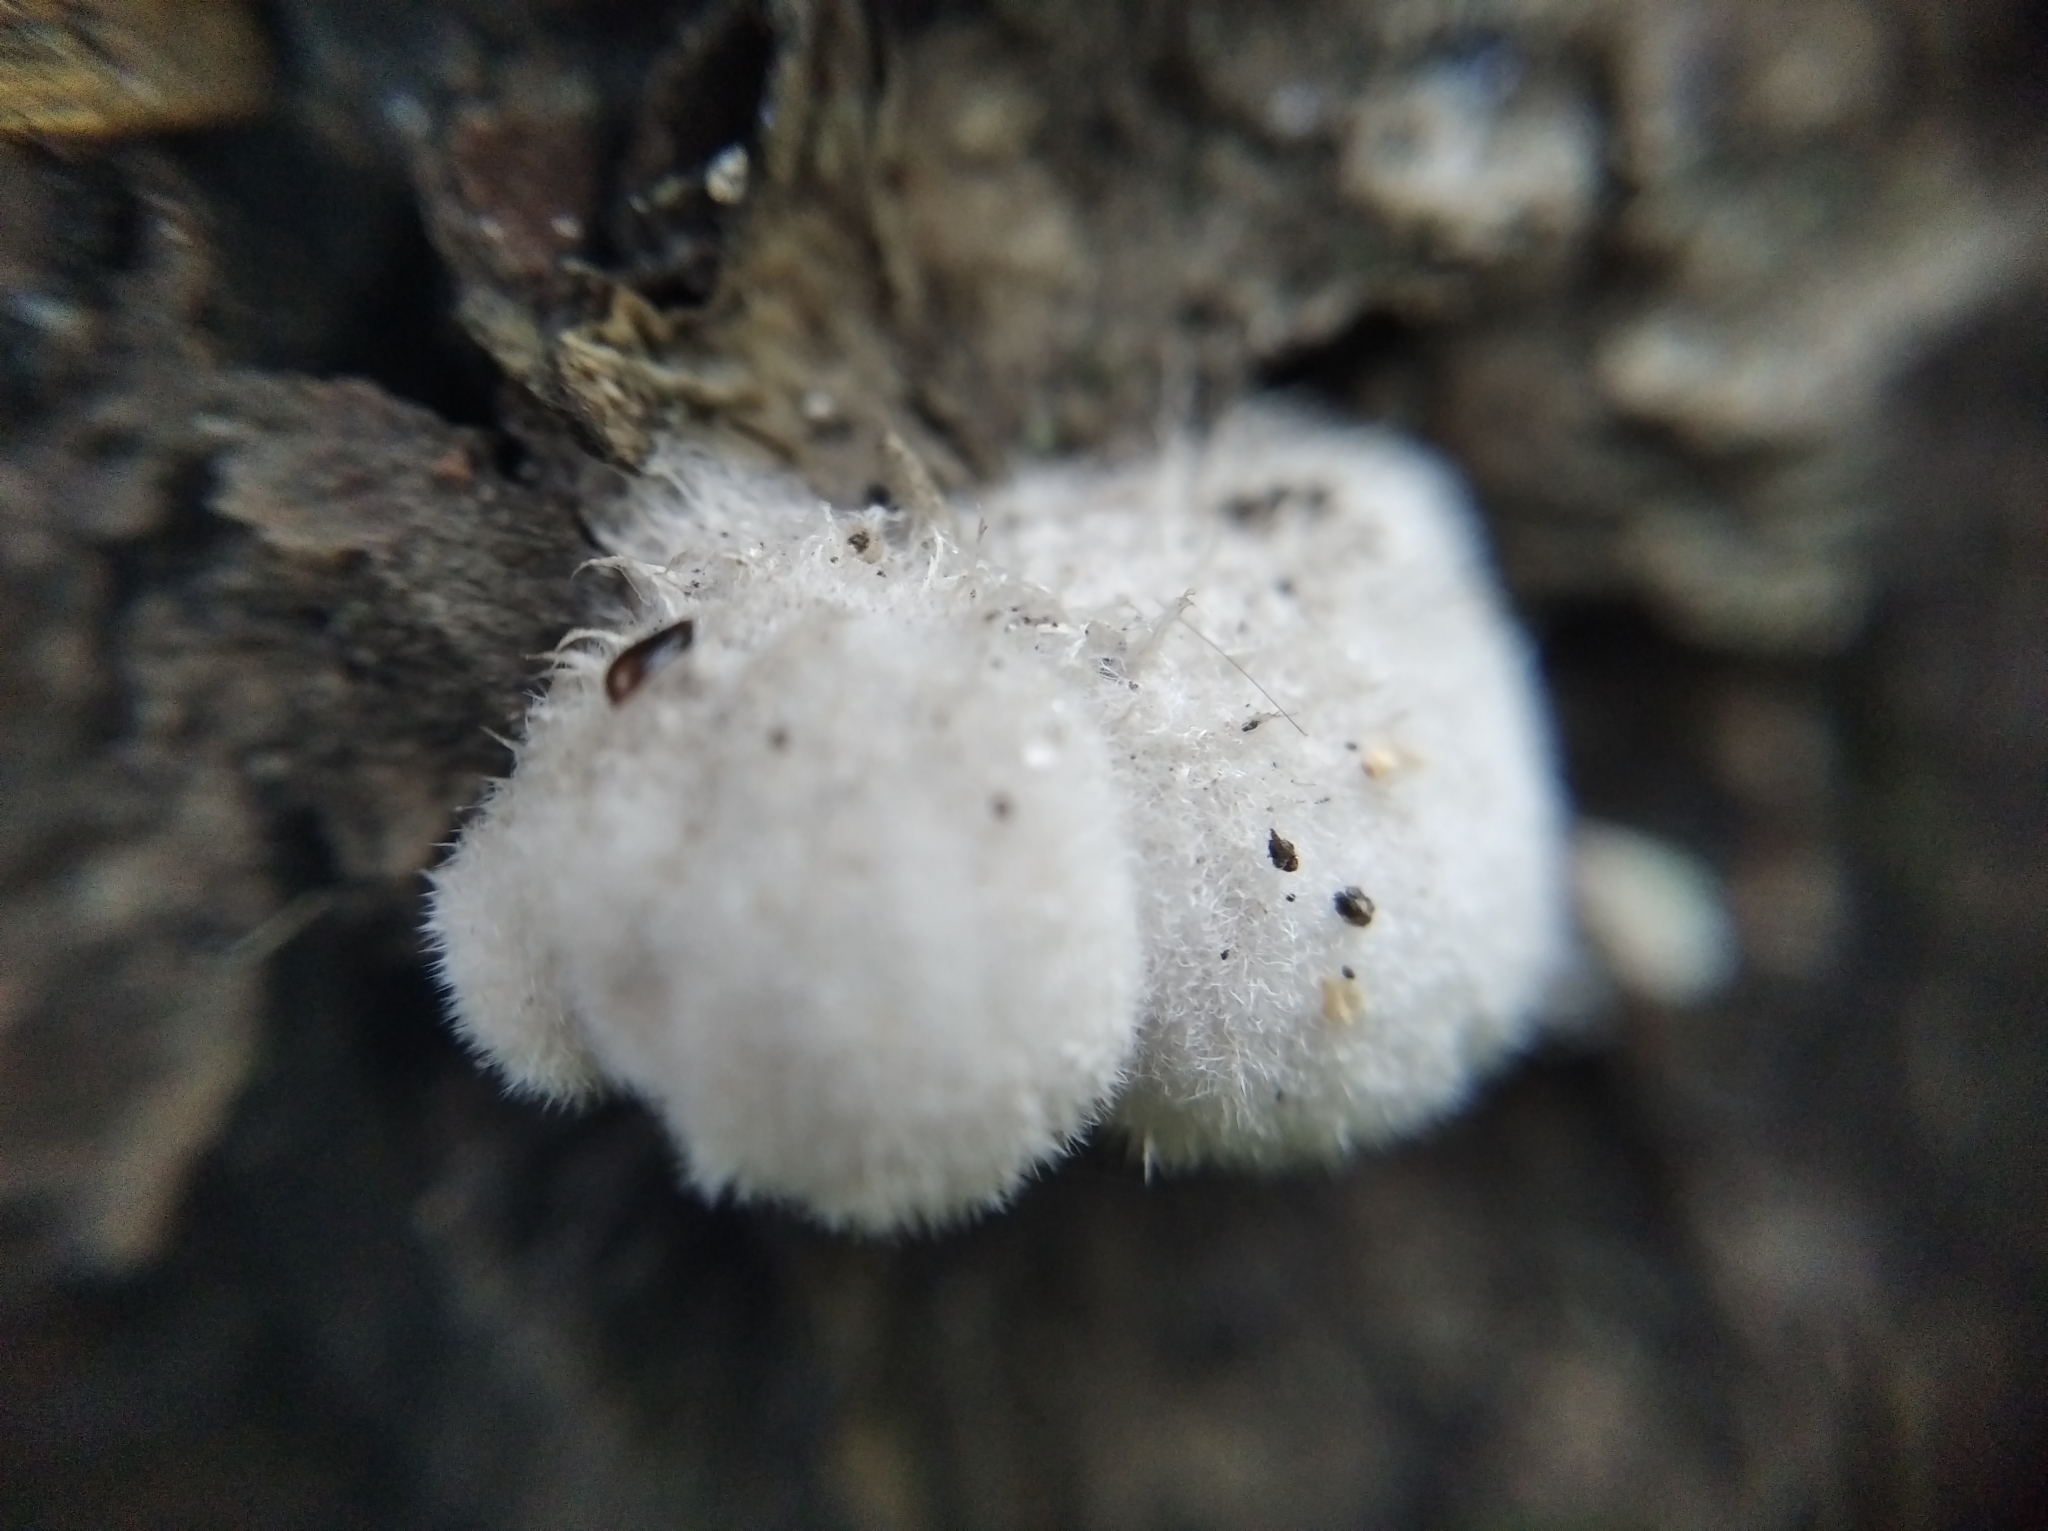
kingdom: Fungi
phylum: Basidiomycota
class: Agaricomycetes
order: Agaricales
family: Schizophyllaceae
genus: Schizophyllum
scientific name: Schizophyllum commune
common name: Common porecrust
